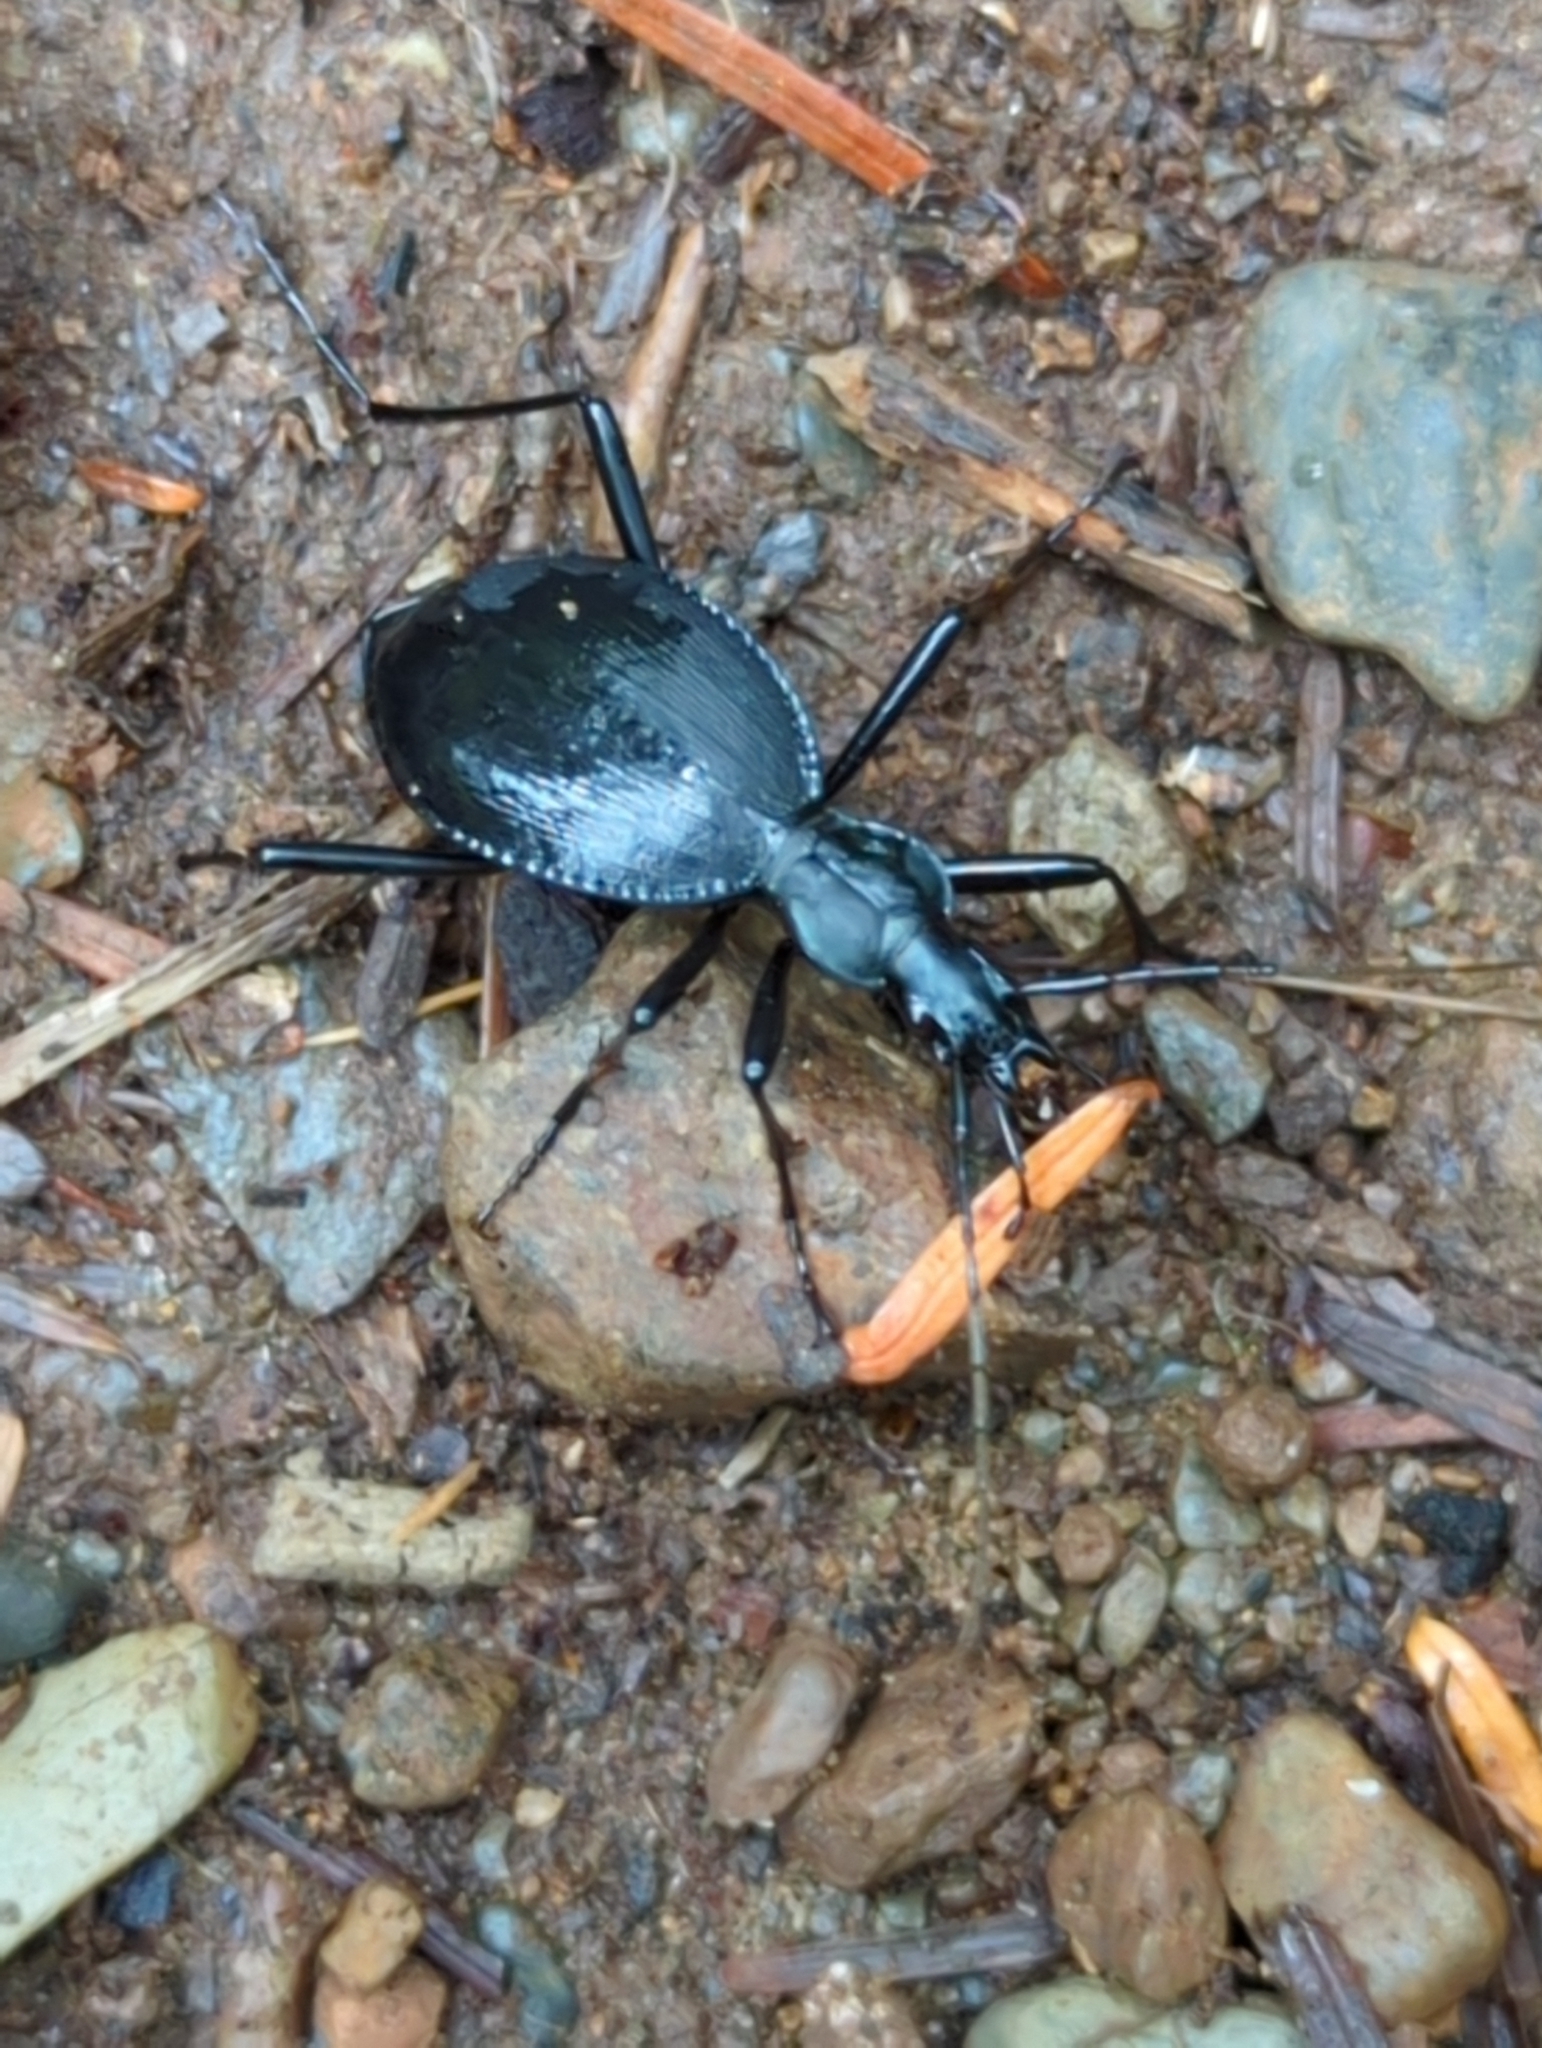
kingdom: Animalia
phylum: Arthropoda
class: Insecta
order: Coleoptera
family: Carabidae
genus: Scaphinotus
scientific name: Scaphinotus angusticollis
